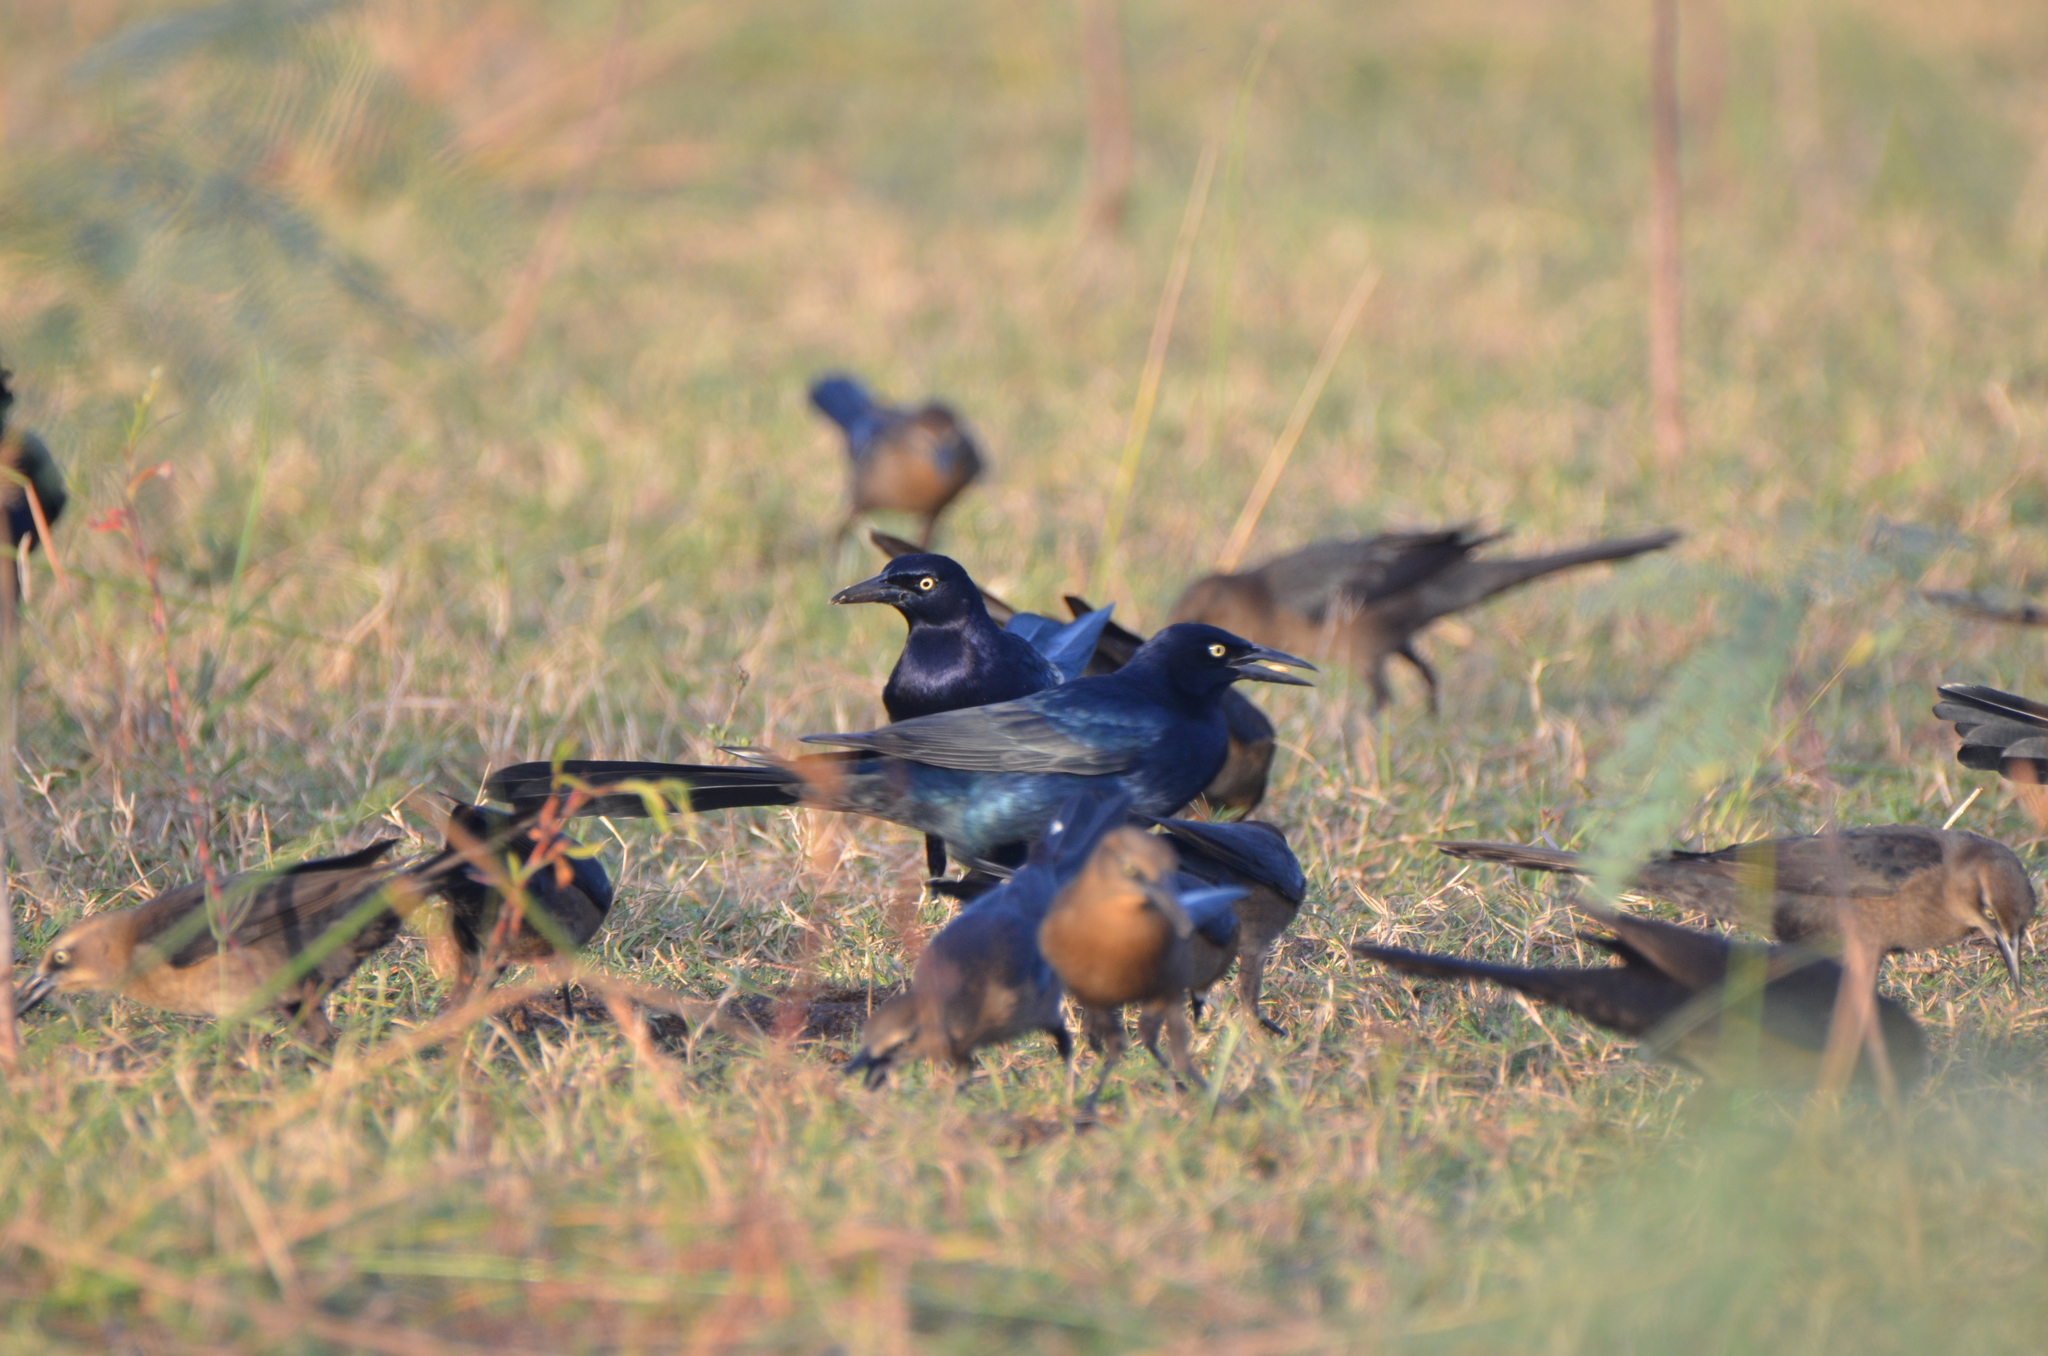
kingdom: Animalia
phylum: Chordata
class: Aves
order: Passeriformes
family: Icteridae
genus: Quiscalus
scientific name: Quiscalus mexicanus
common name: Great-tailed grackle
